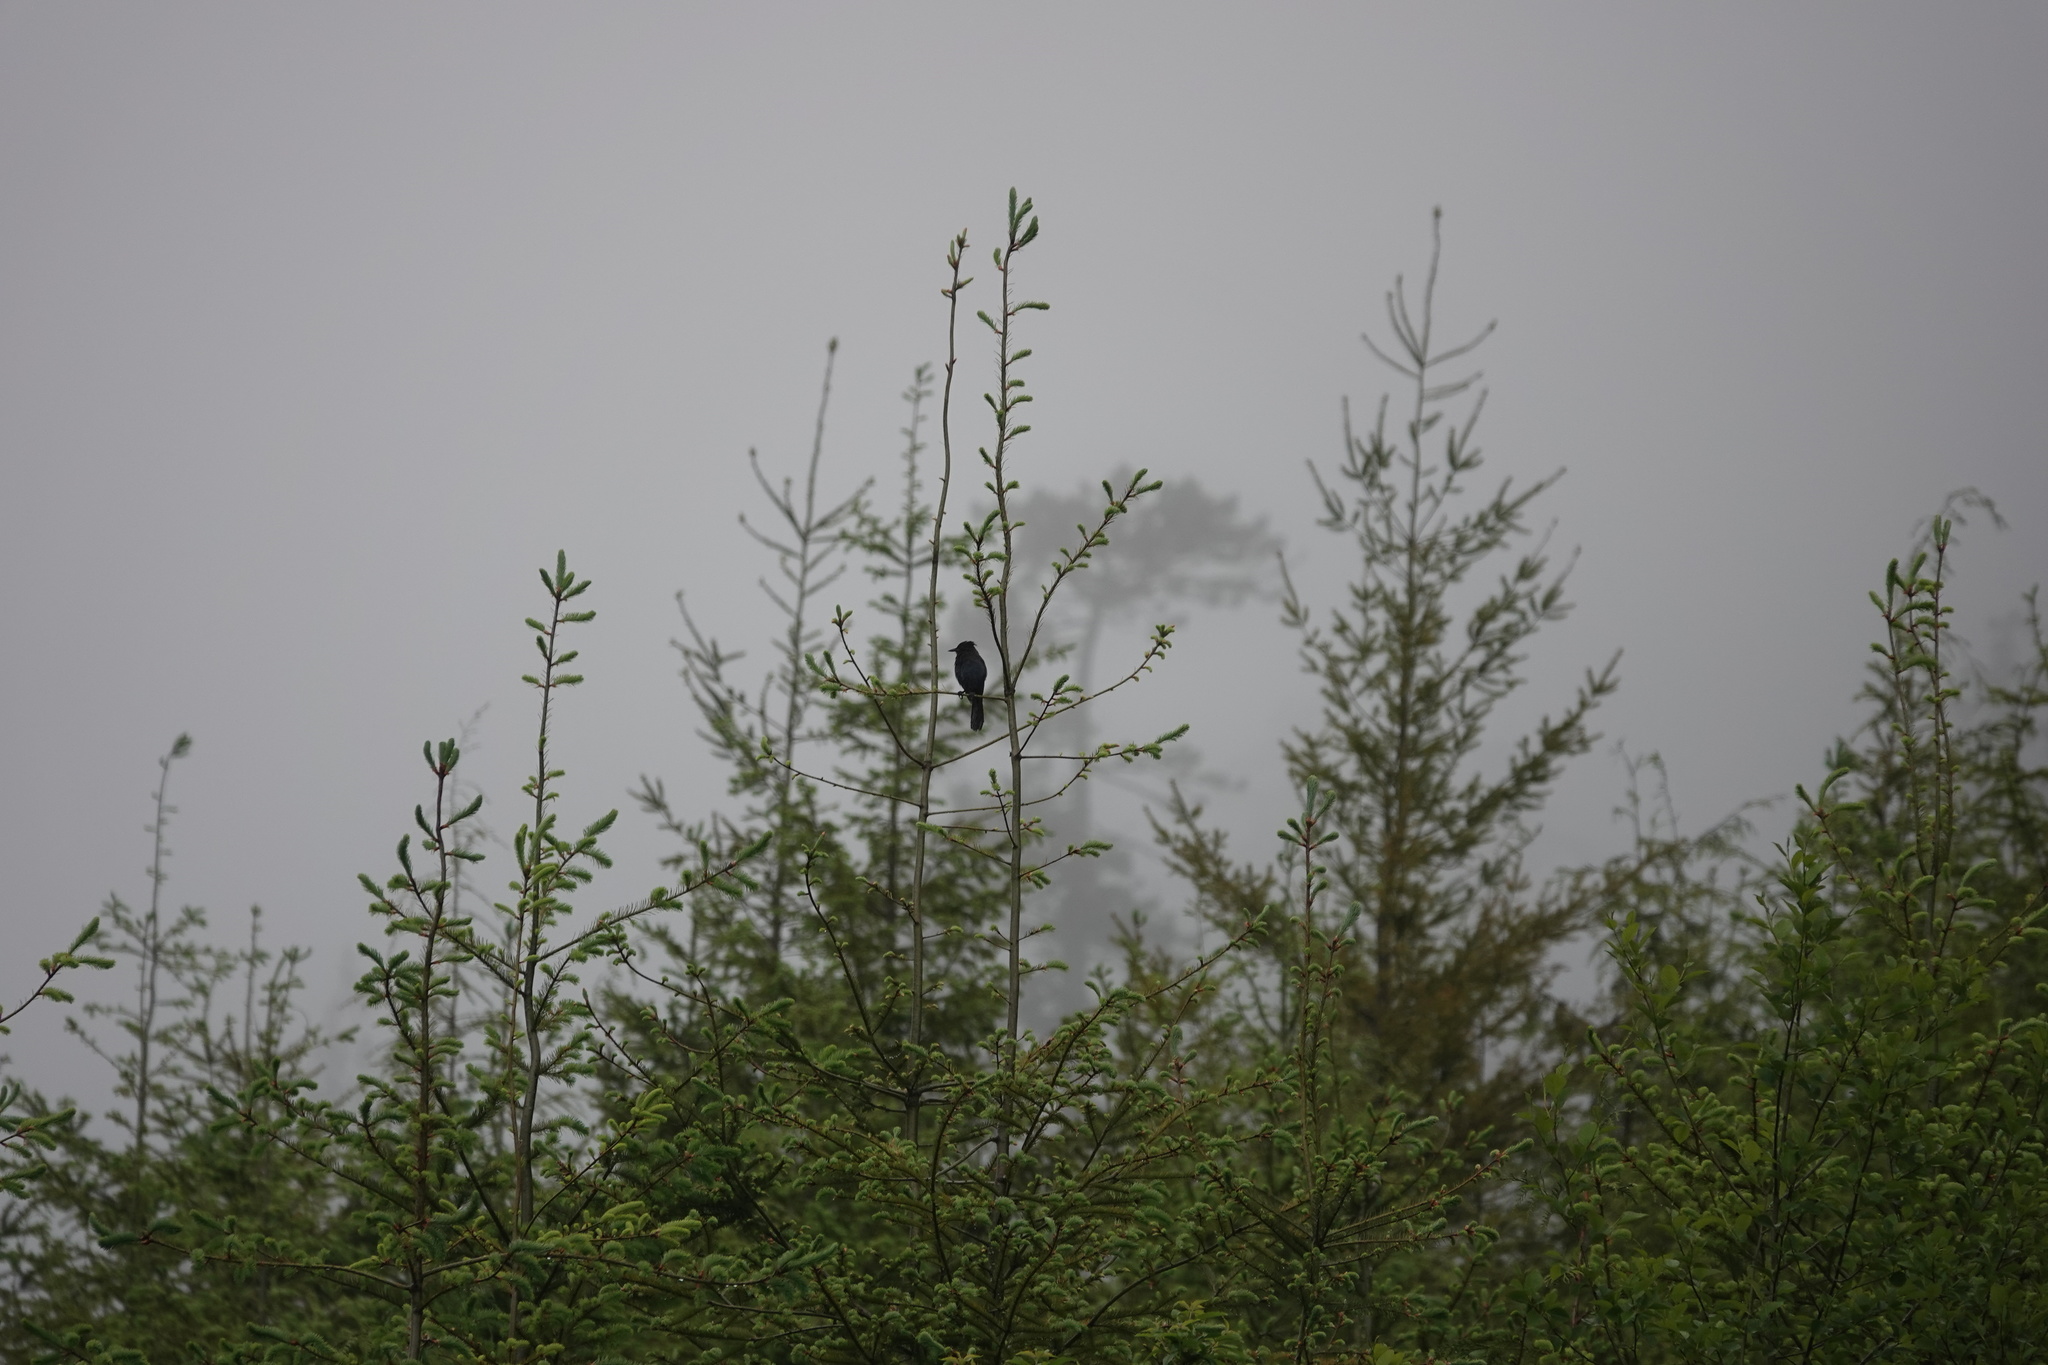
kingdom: Animalia
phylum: Chordata
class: Aves
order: Passeriformes
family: Corvidae
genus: Cyanocitta
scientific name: Cyanocitta stelleri
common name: Steller's jay
